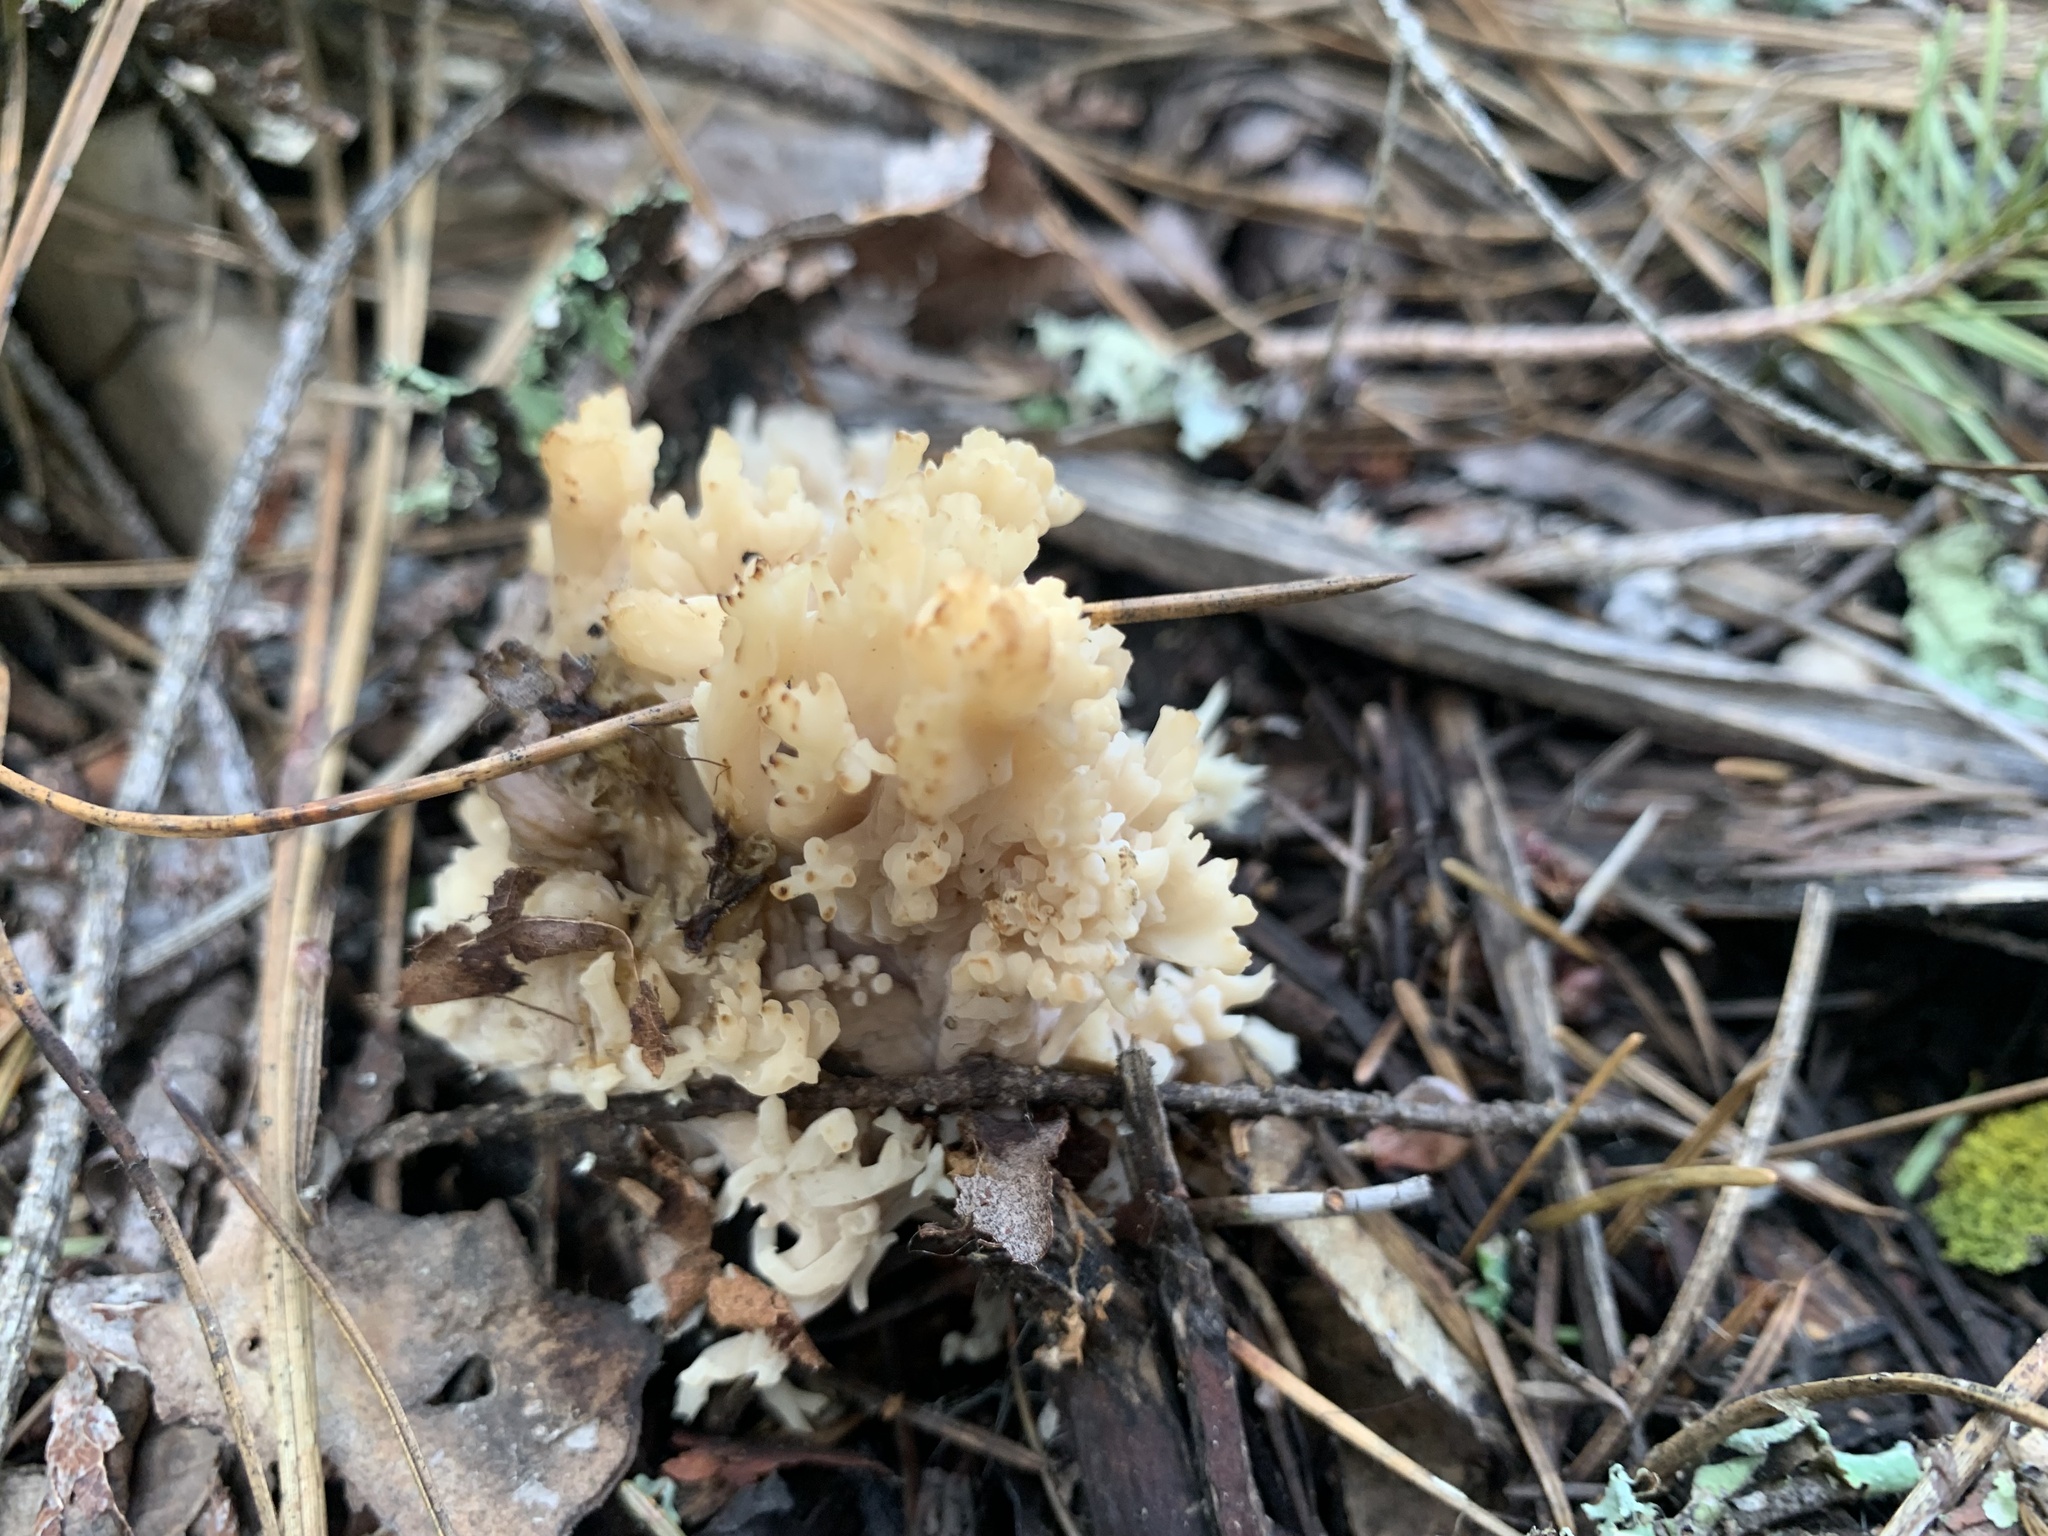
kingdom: Fungi
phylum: Basidiomycota
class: Agaricomycetes
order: Cantharellales
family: Hydnaceae
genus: Clavulina
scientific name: Clavulina coralloides
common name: Crested coral
